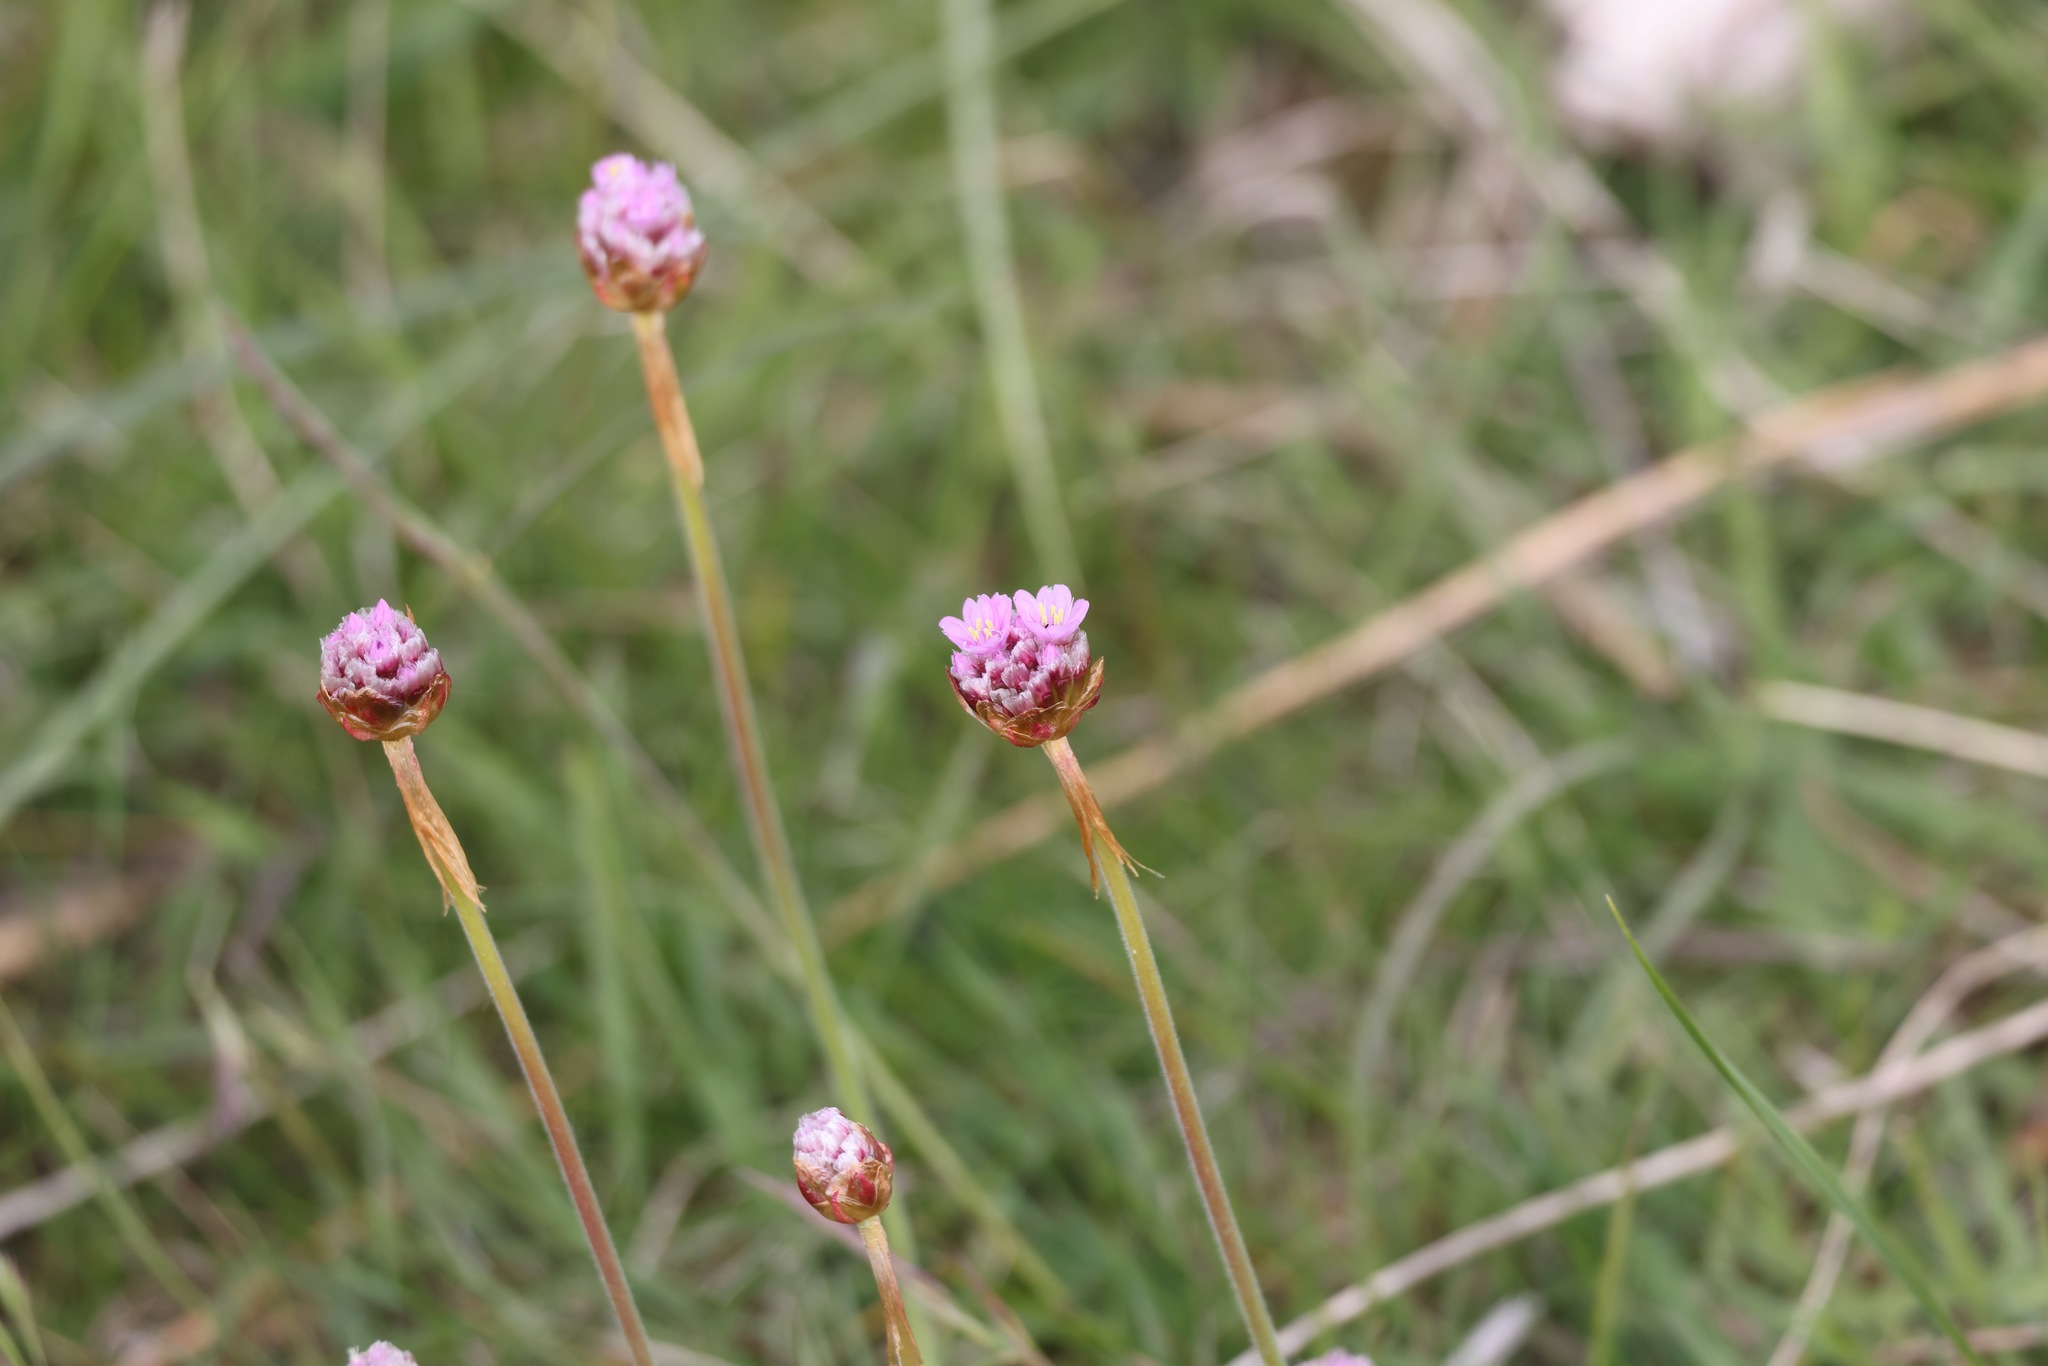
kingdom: Plantae
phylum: Tracheophyta
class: Magnoliopsida
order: Caryophyllales
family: Plumbaginaceae
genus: Armeria
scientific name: Armeria maritima
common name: Thrift
